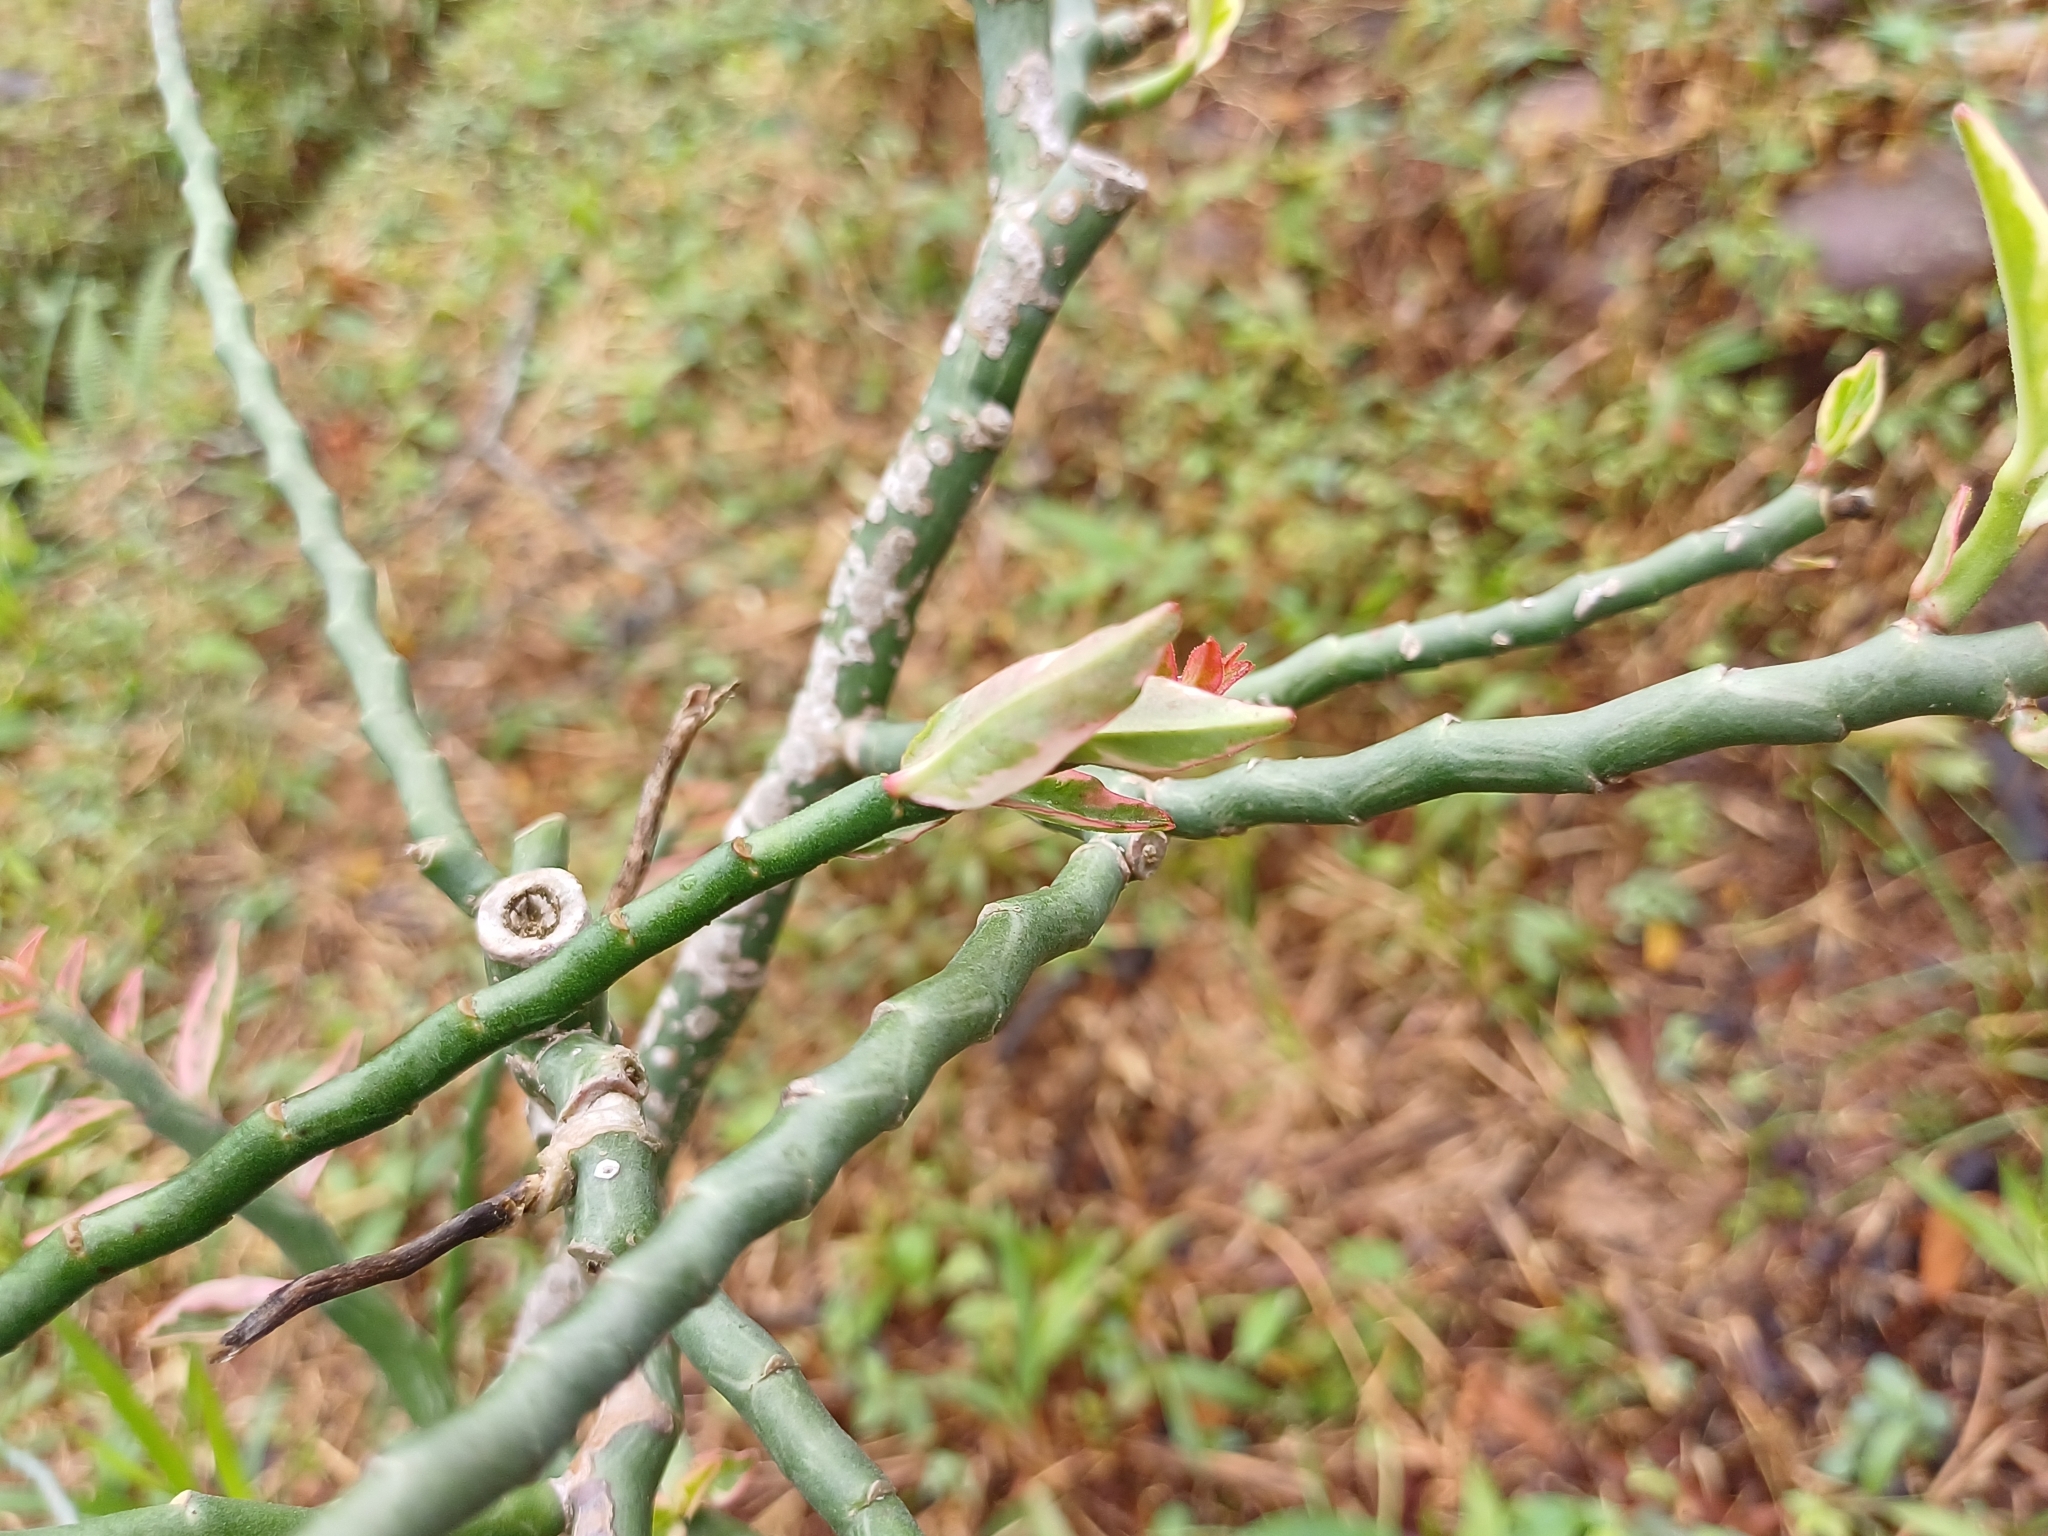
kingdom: Plantae
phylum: Tracheophyta
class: Magnoliopsida
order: Malpighiales
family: Euphorbiaceae
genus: Euphorbia
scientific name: Euphorbia tithymaloides
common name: Slipperplant
